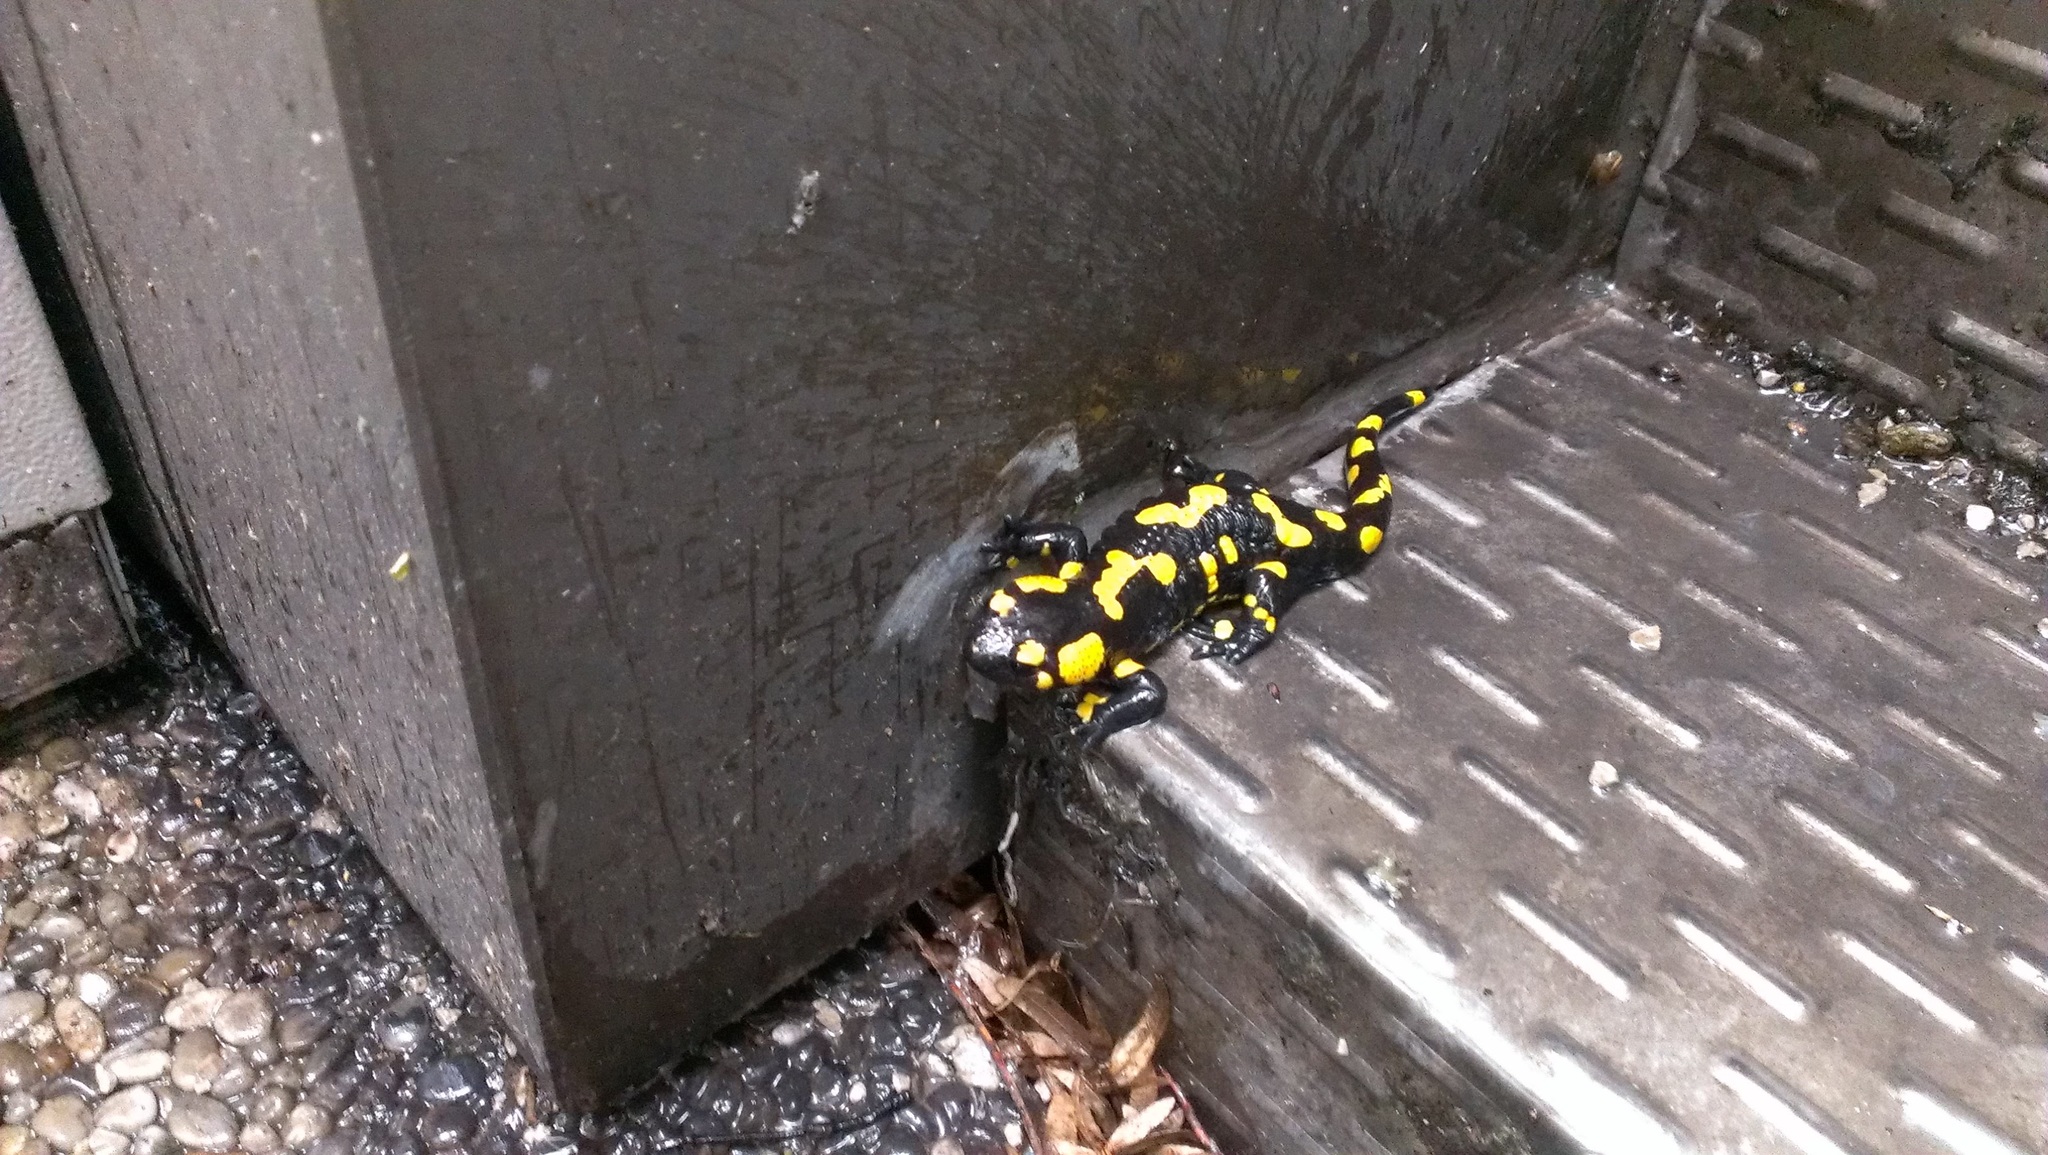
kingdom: Animalia
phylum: Chordata
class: Amphibia
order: Caudata
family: Salamandridae
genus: Salamandra
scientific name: Salamandra salamandra
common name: Fire salamander
